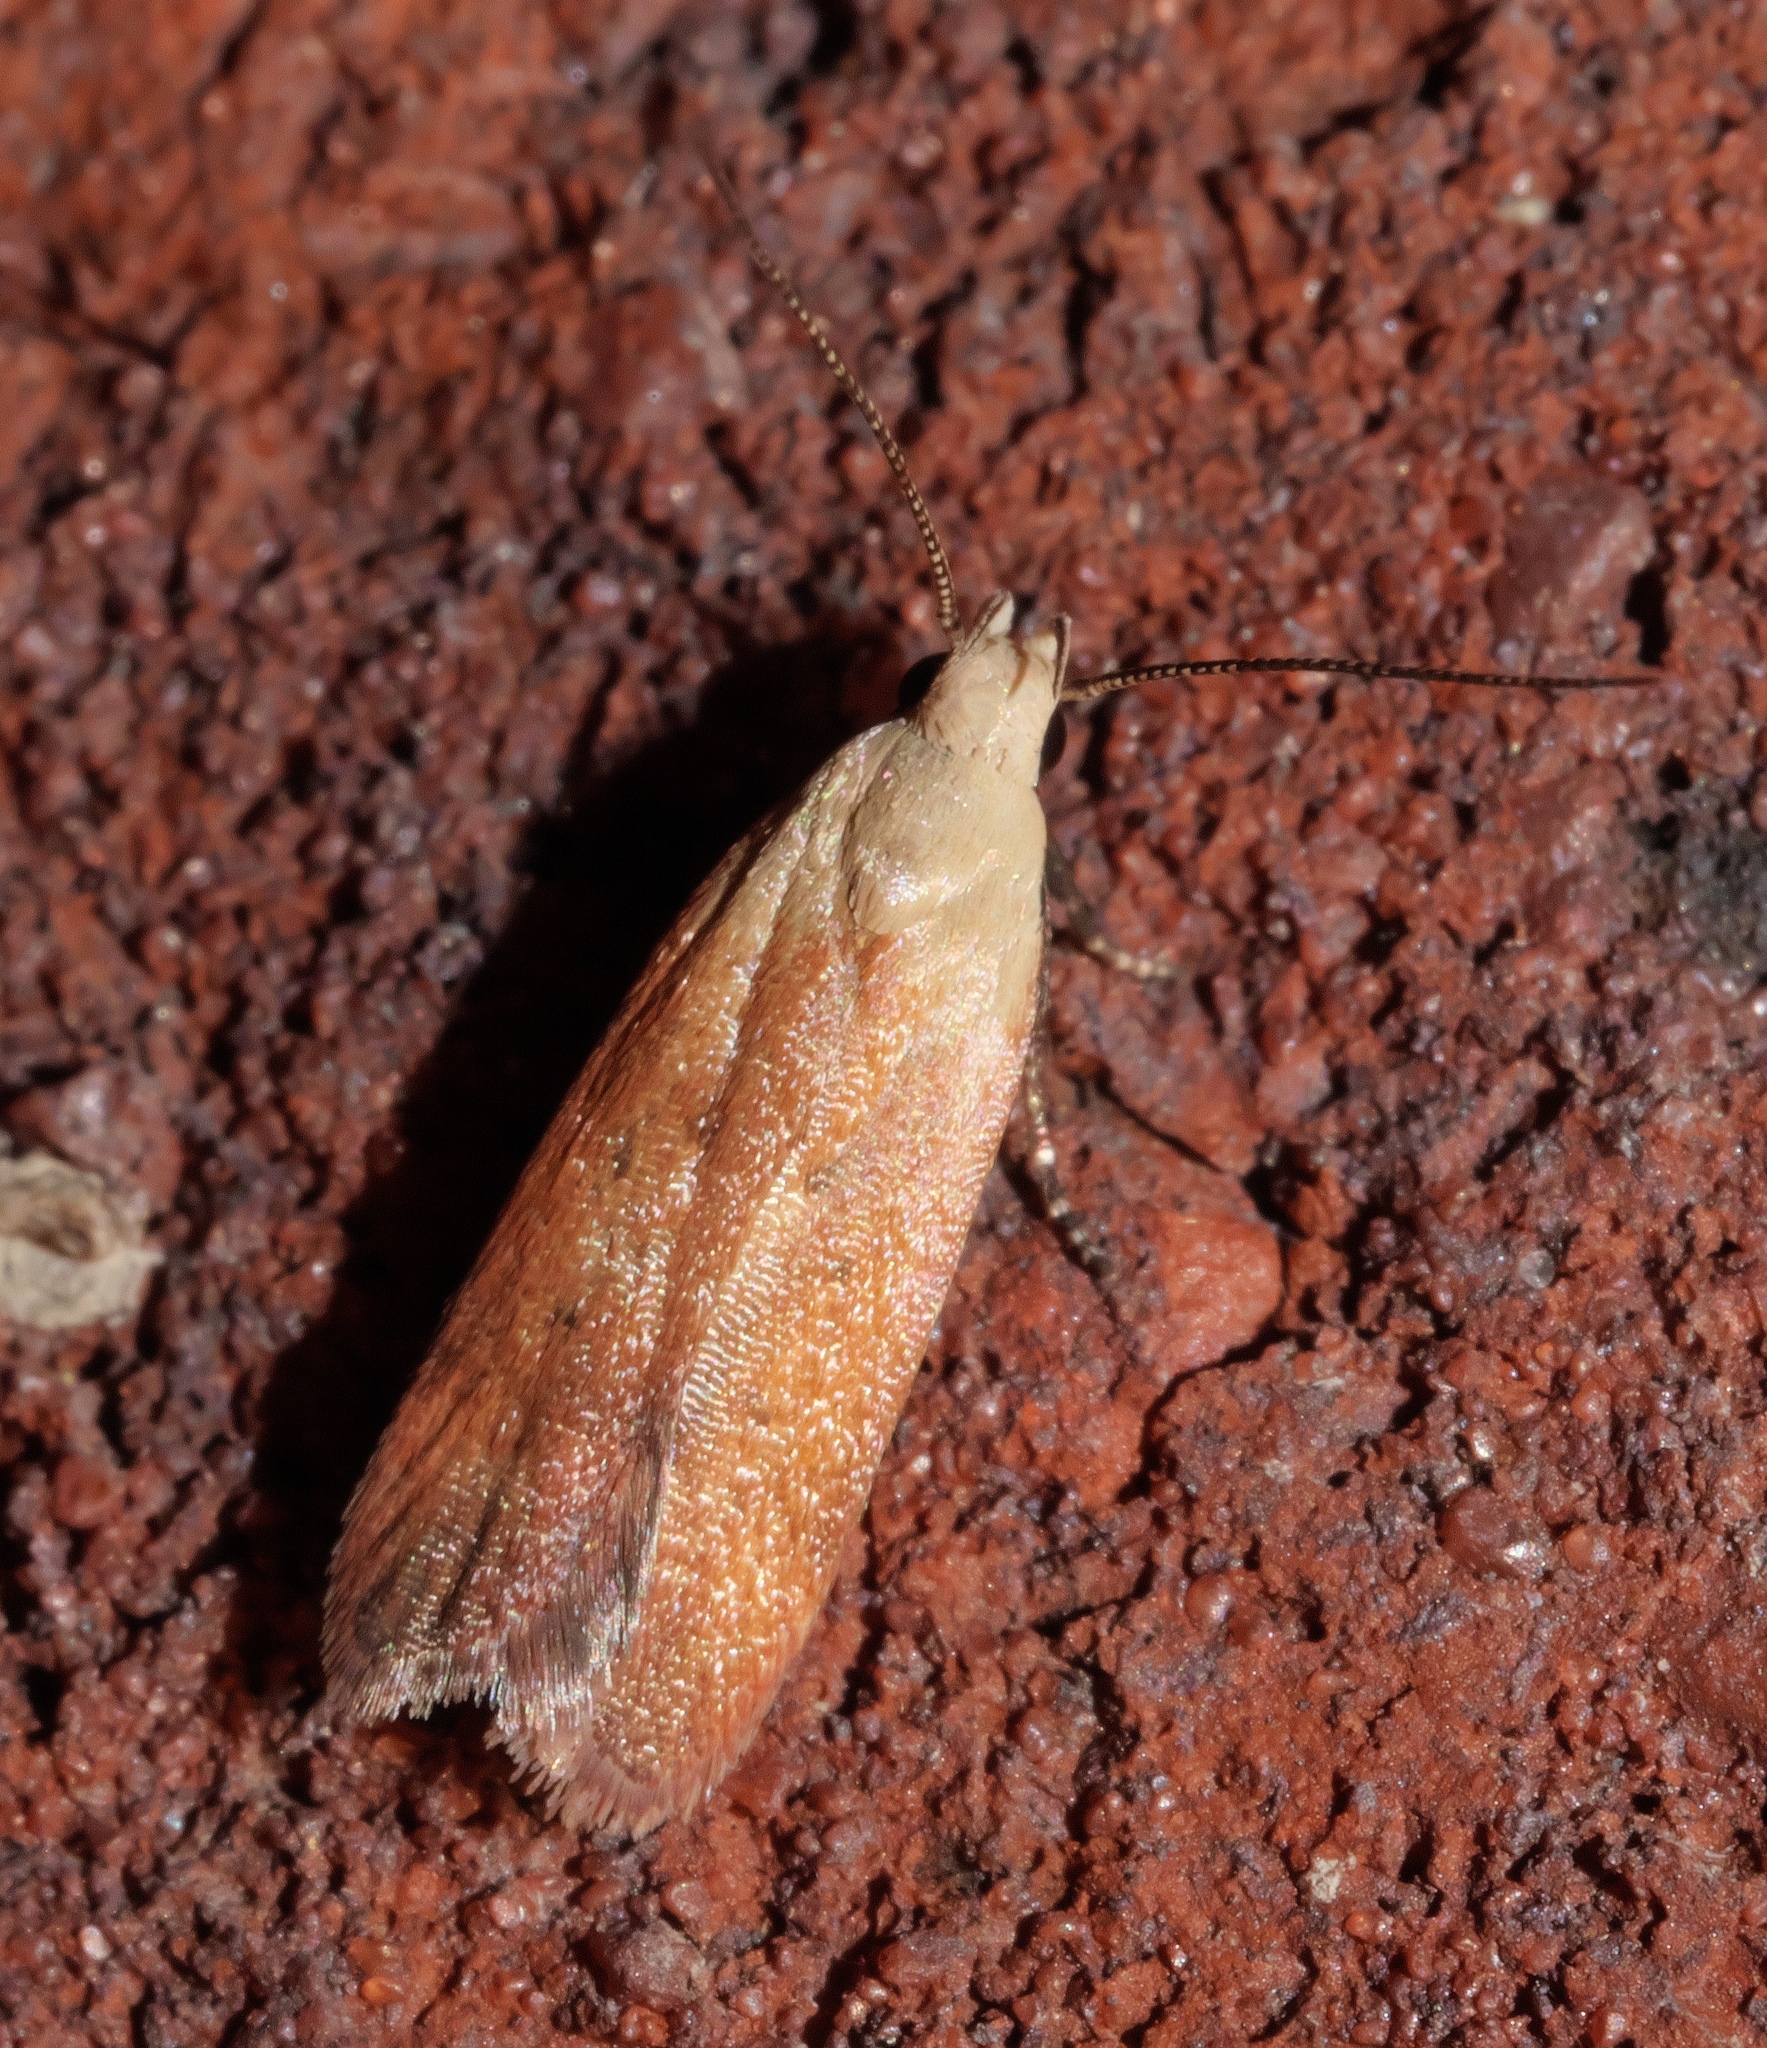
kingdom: Animalia
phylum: Arthropoda
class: Insecta
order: Lepidoptera
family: Gelechiidae
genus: Anacampsis
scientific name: Anacampsis fullonella
